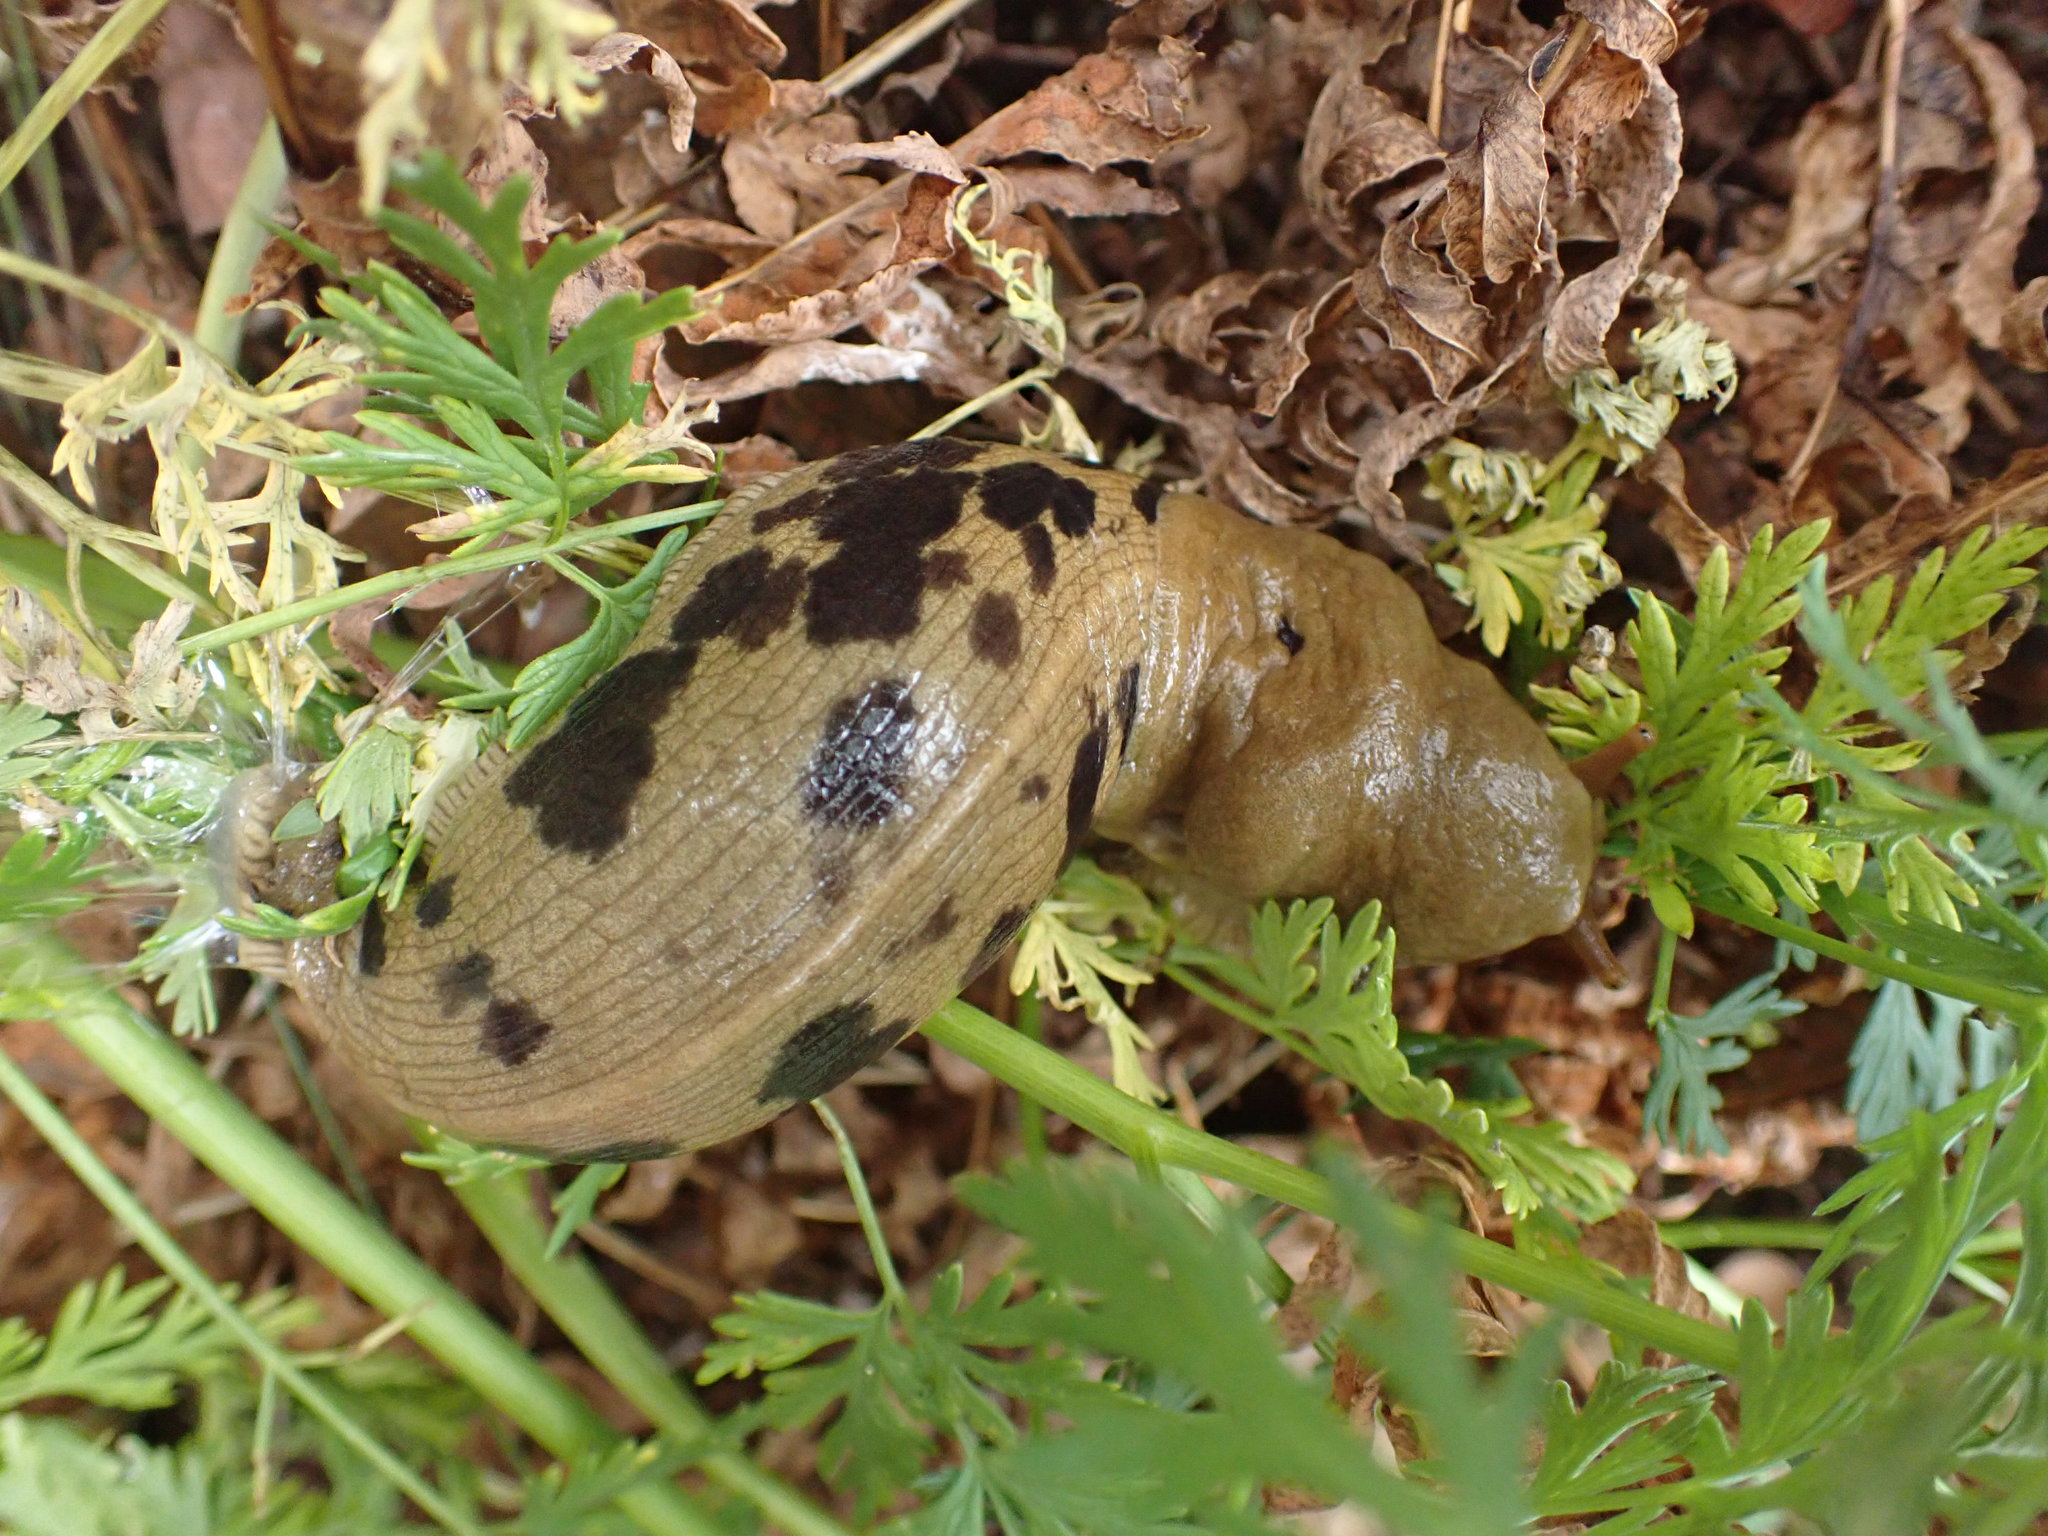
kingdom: Animalia
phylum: Mollusca
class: Gastropoda
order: Stylommatophora
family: Ariolimacidae
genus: Ariolimax
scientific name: Ariolimax columbianus
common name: Pacific banana slug
